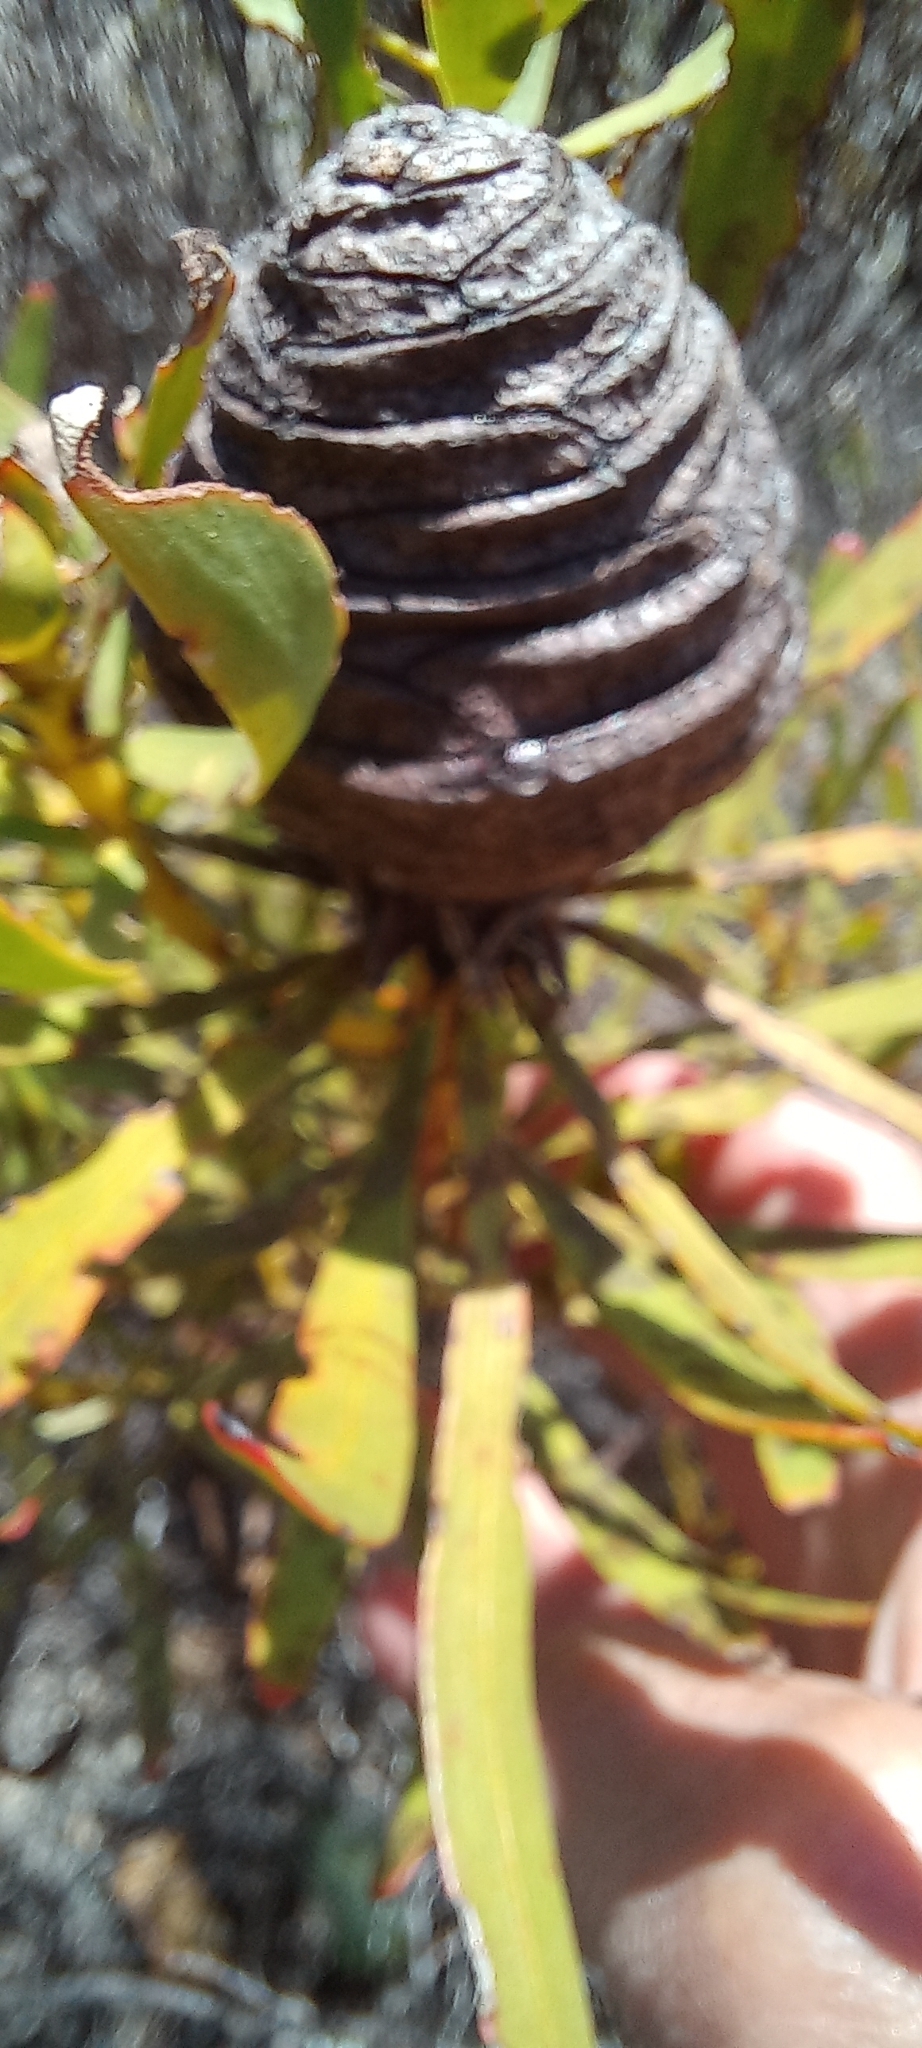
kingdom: Plantae
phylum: Tracheophyta
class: Magnoliopsida
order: Proteales
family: Proteaceae
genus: Leucadendron
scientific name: Leucadendron platyspermum
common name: Plate-seed conebush
